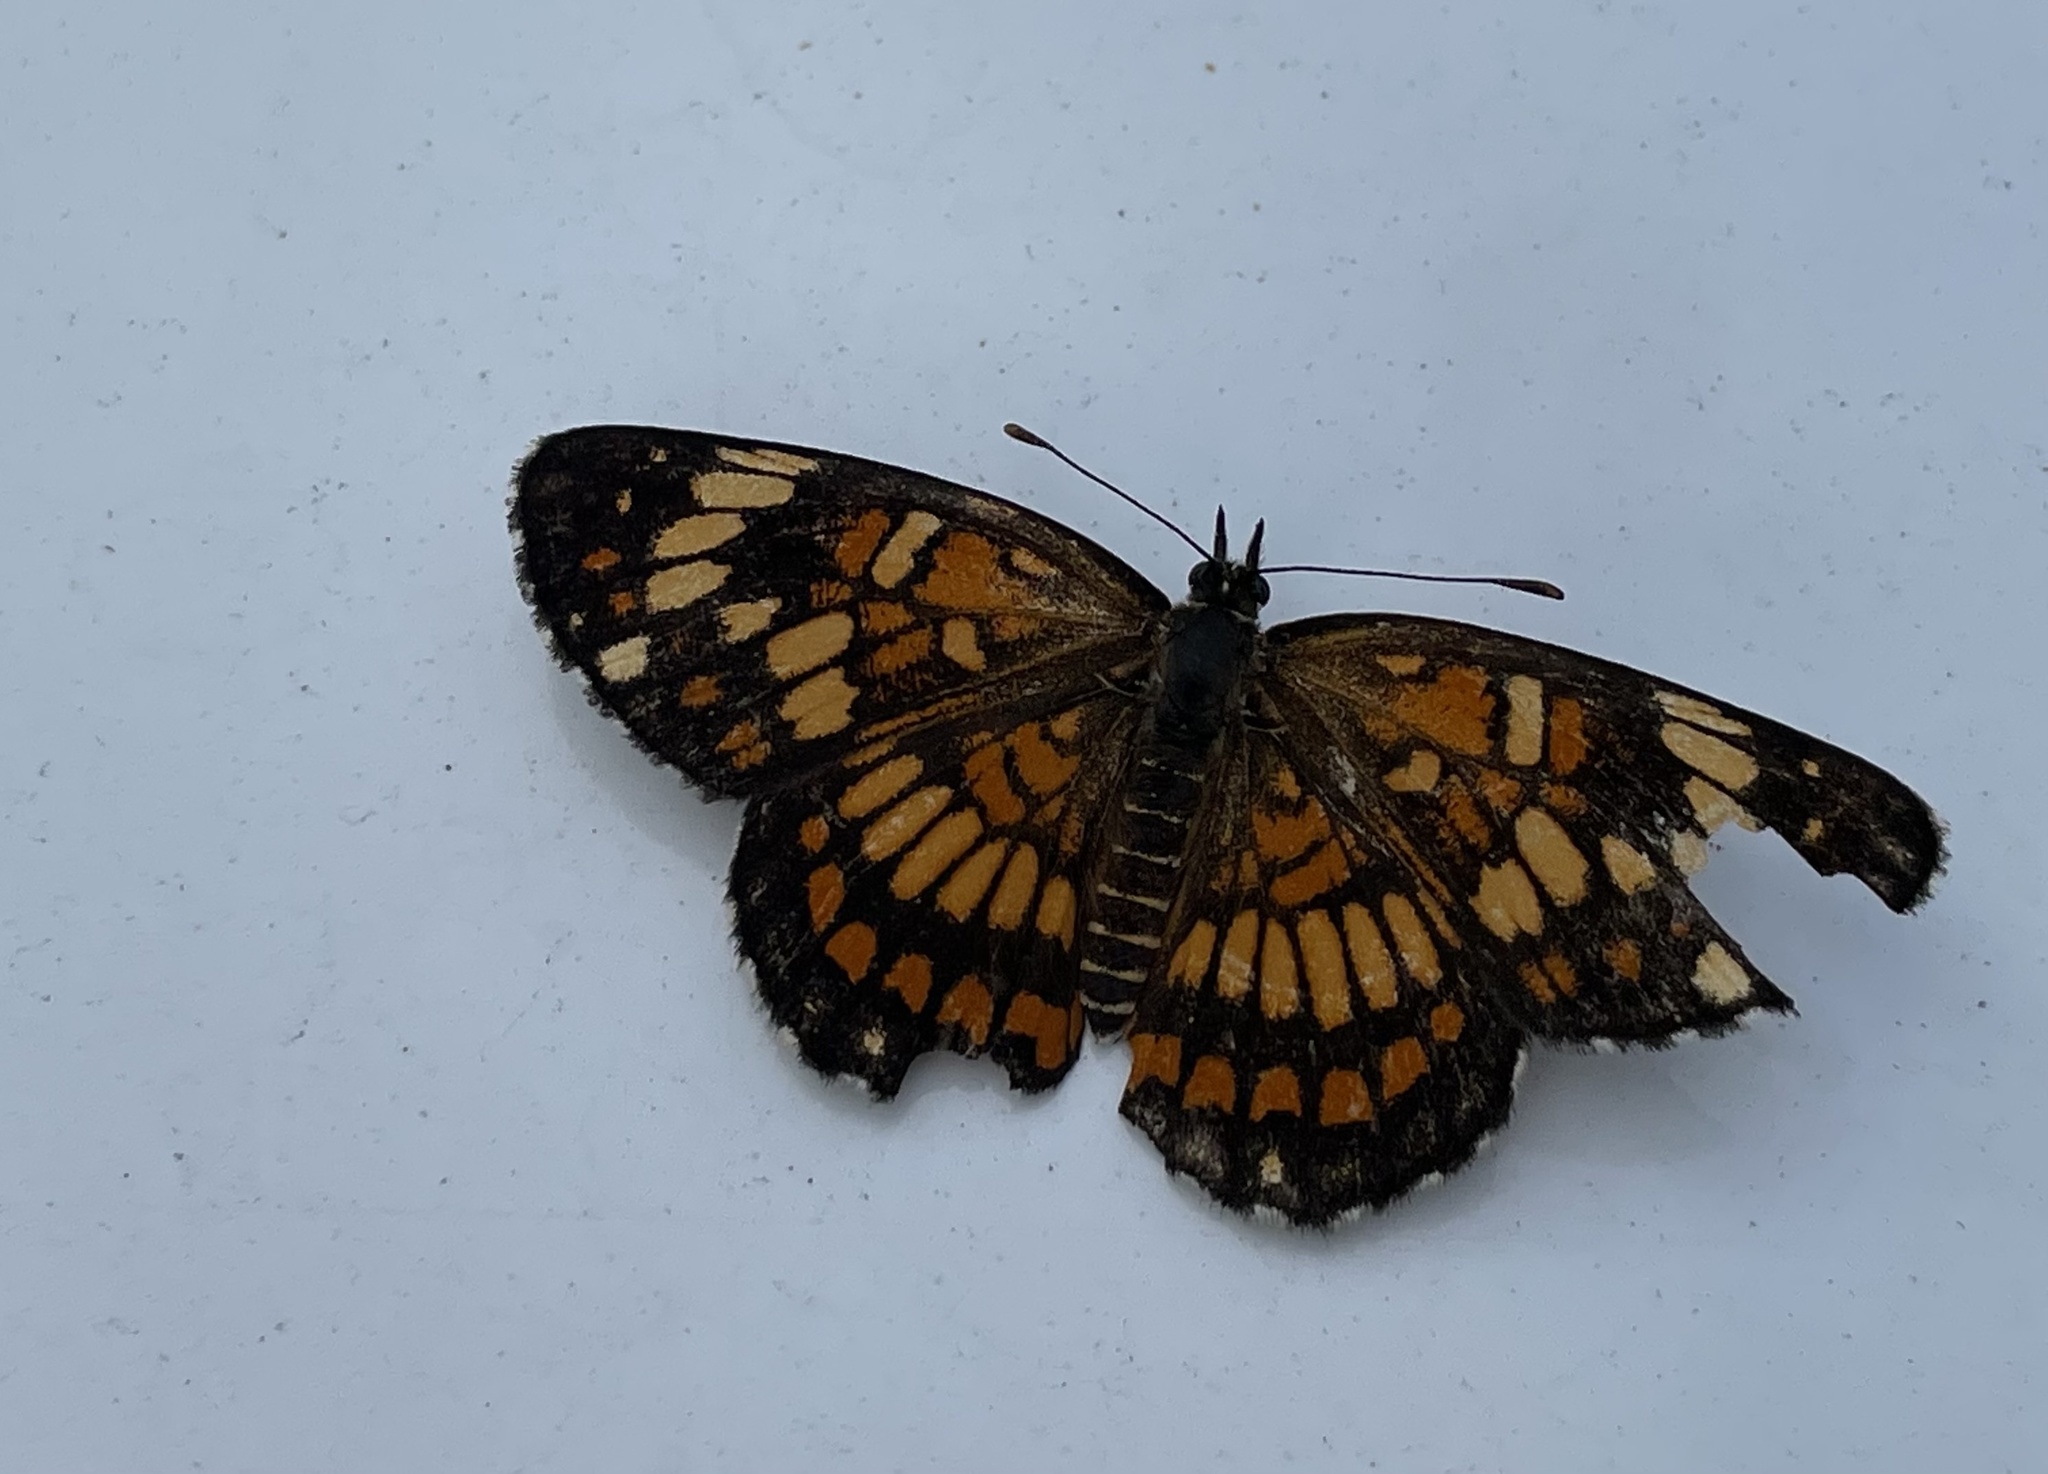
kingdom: Animalia
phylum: Arthropoda
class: Insecta
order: Lepidoptera
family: Nymphalidae
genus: Thessalia
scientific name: Thessalia theona
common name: Nymphalid moth
